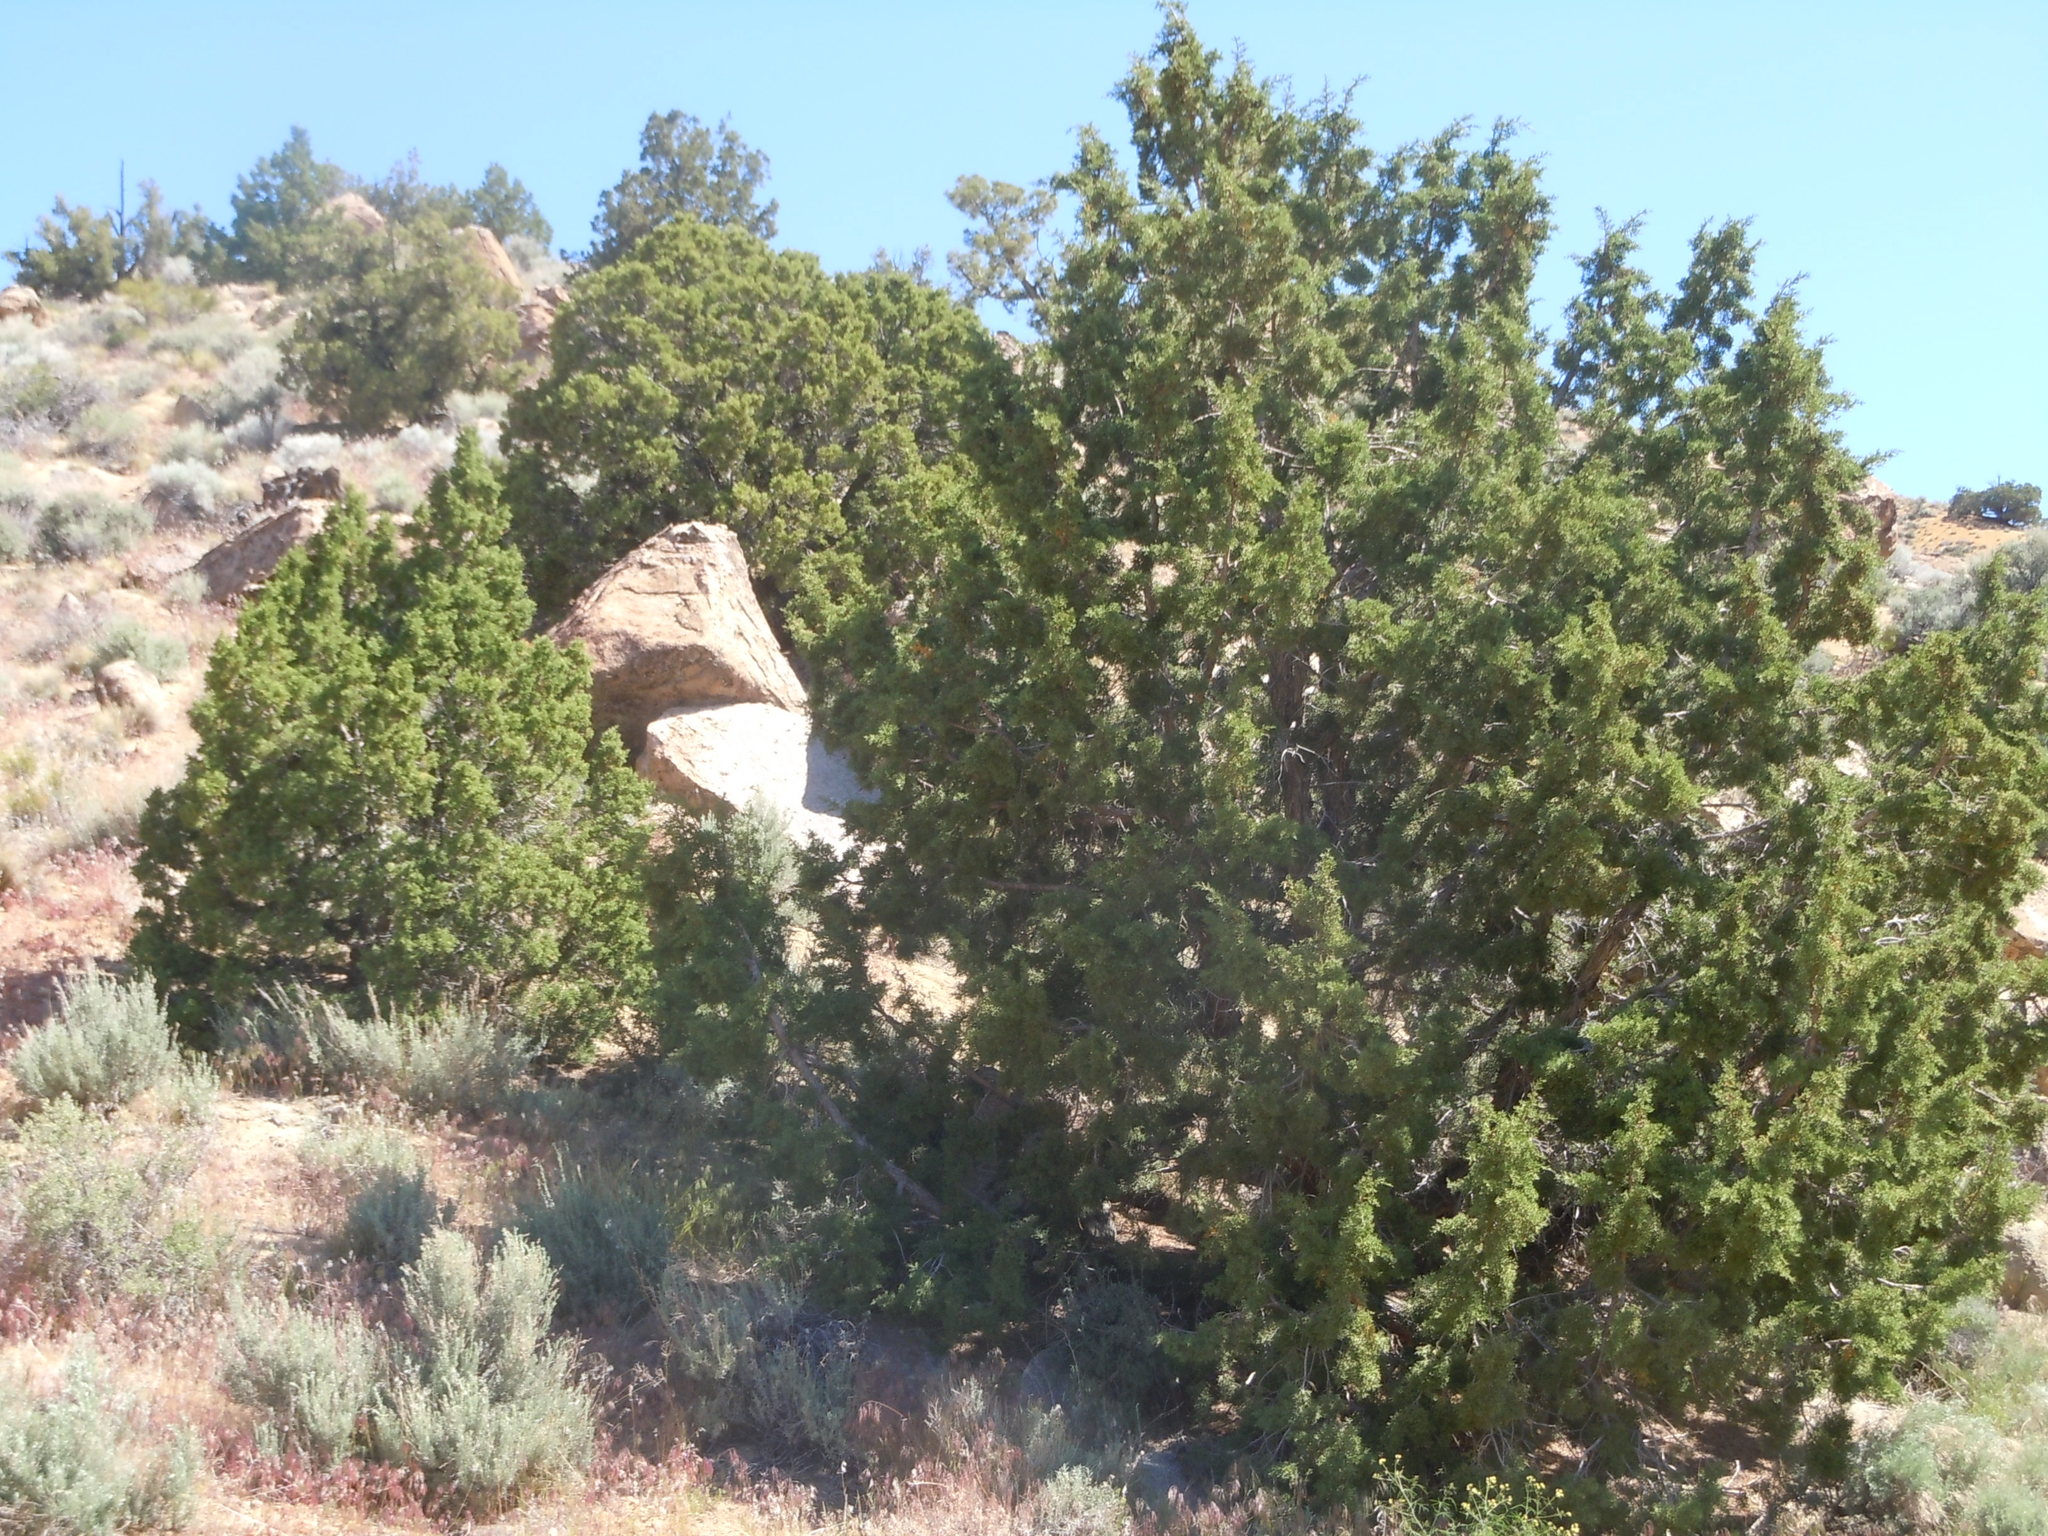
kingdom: Plantae
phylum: Tracheophyta
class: Pinopsida
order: Pinales
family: Cupressaceae
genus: Juniperus
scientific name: Juniperus osteosperma
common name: Utah juniper
